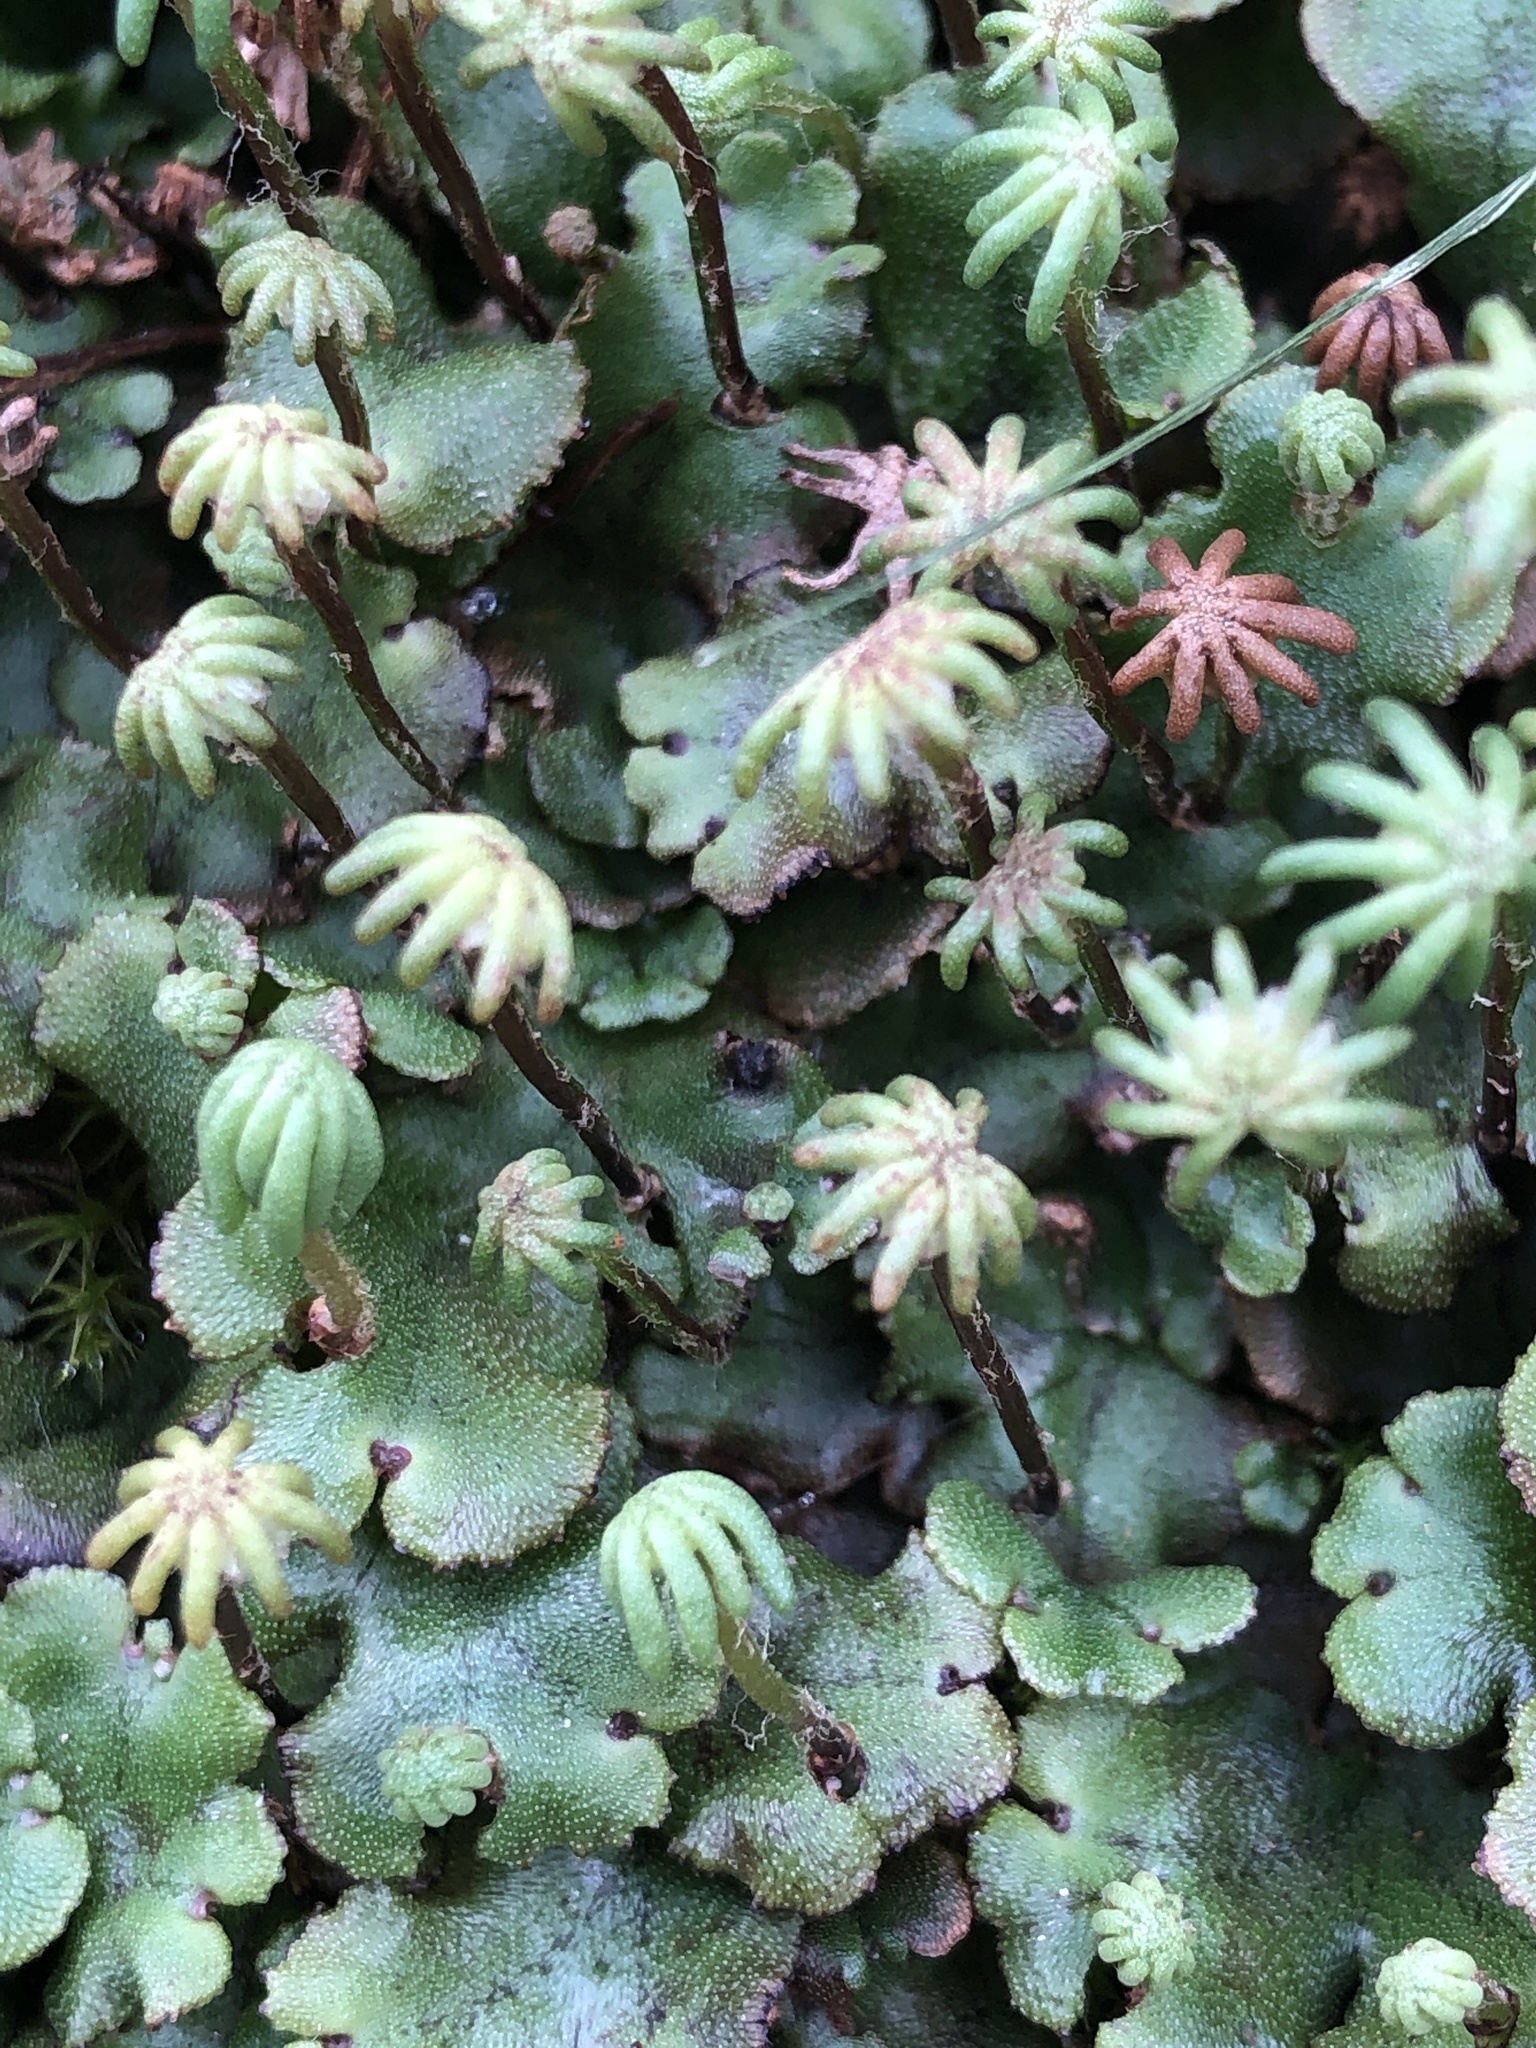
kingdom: Plantae
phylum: Marchantiophyta
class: Marchantiopsida
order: Marchantiales
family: Marchantiaceae
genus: Marchantia
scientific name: Marchantia polymorpha
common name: Common liverwort
